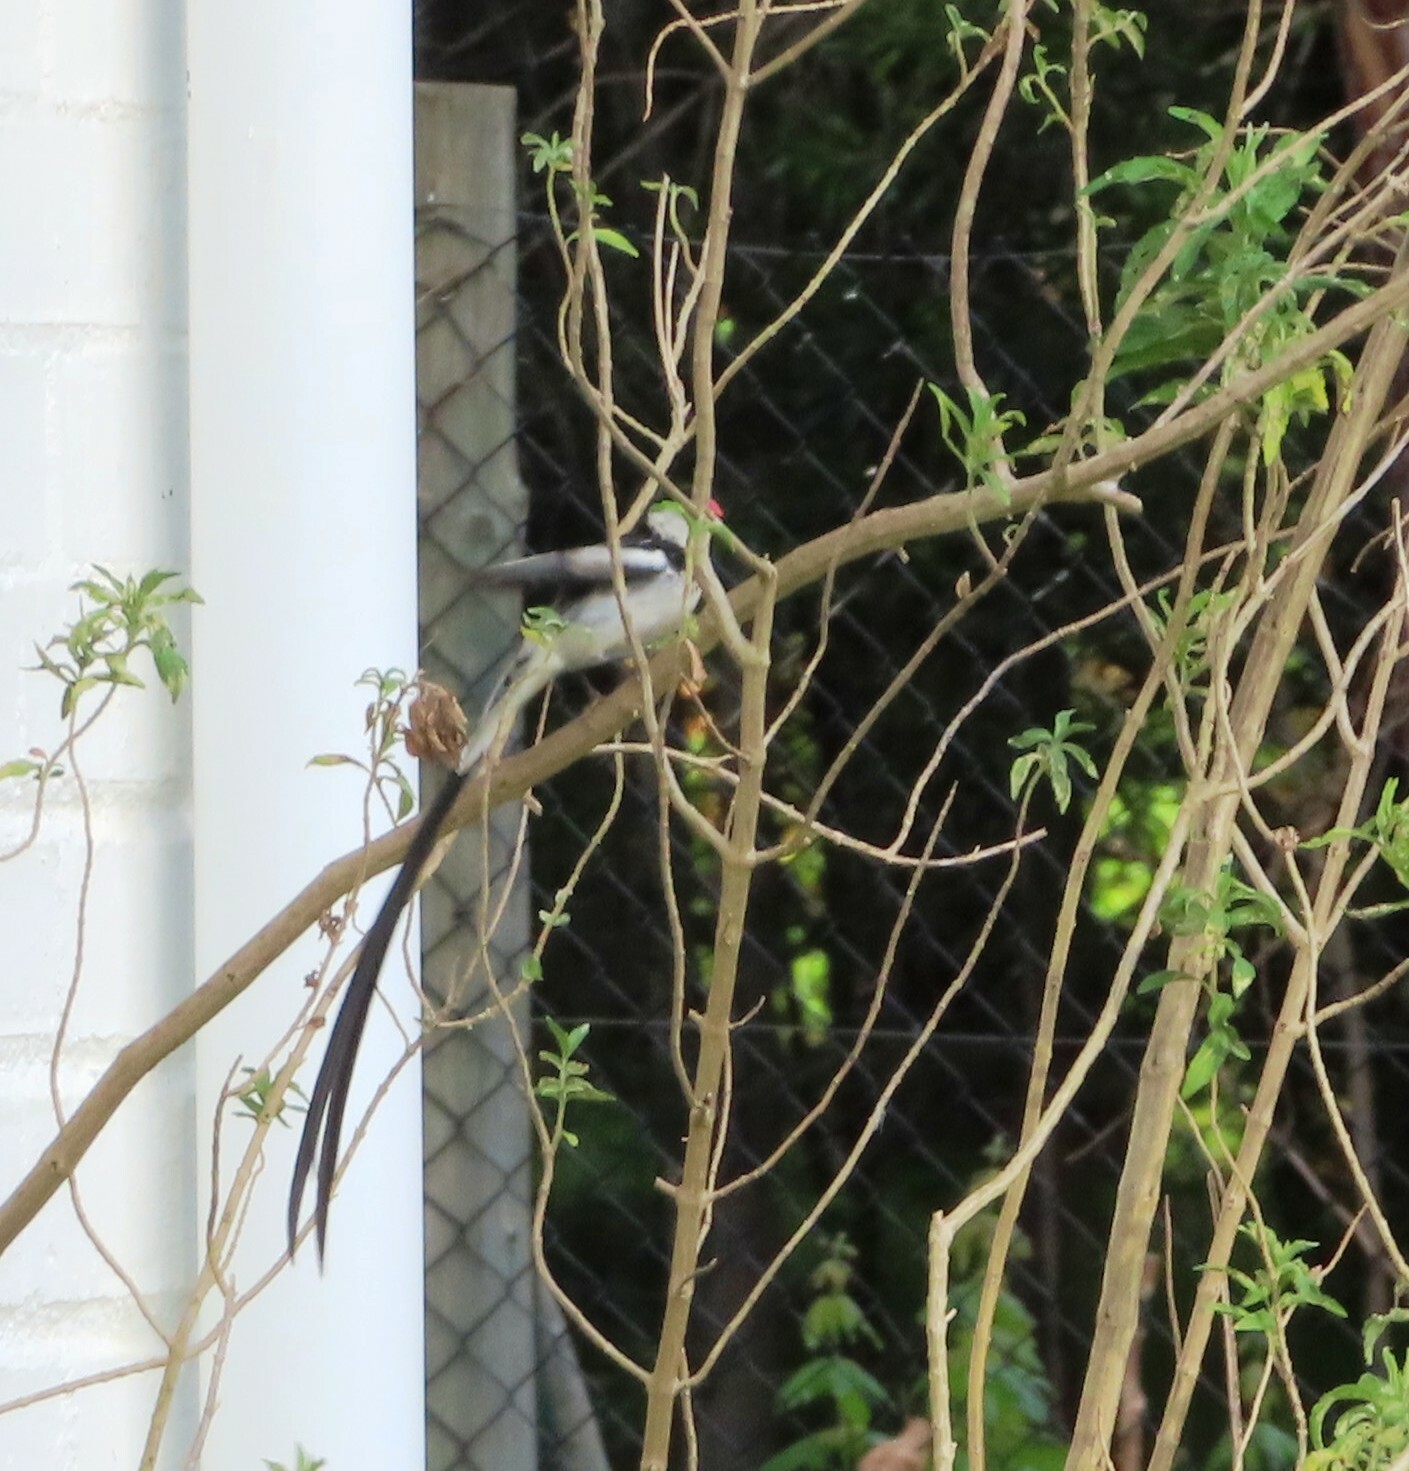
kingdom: Animalia
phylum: Chordata
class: Aves
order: Passeriformes
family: Viduidae
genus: Vidua
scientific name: Vidua macroura
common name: Pin-tailed whydah
